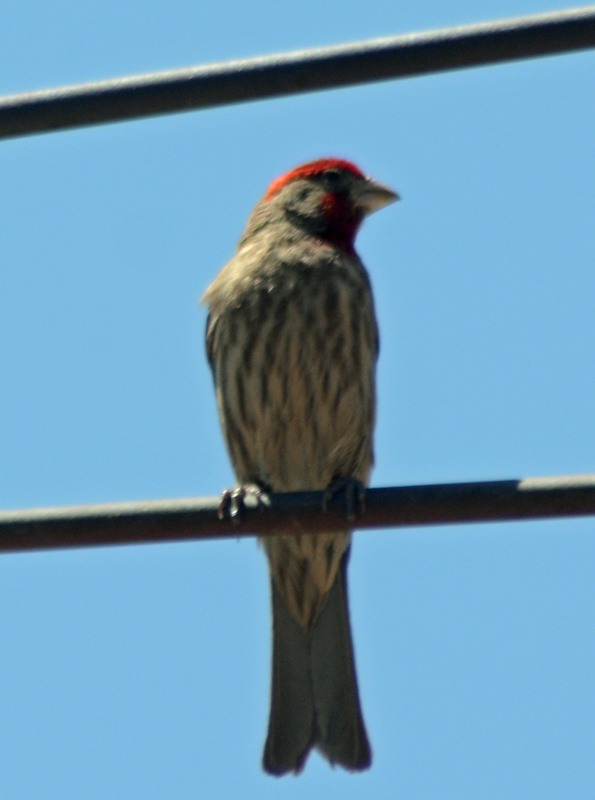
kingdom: Animalia
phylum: Chordata
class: Aves
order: Passeriformes
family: Fringillidae
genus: Haemorhous
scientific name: Haemorhous mexicanus
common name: House finch
